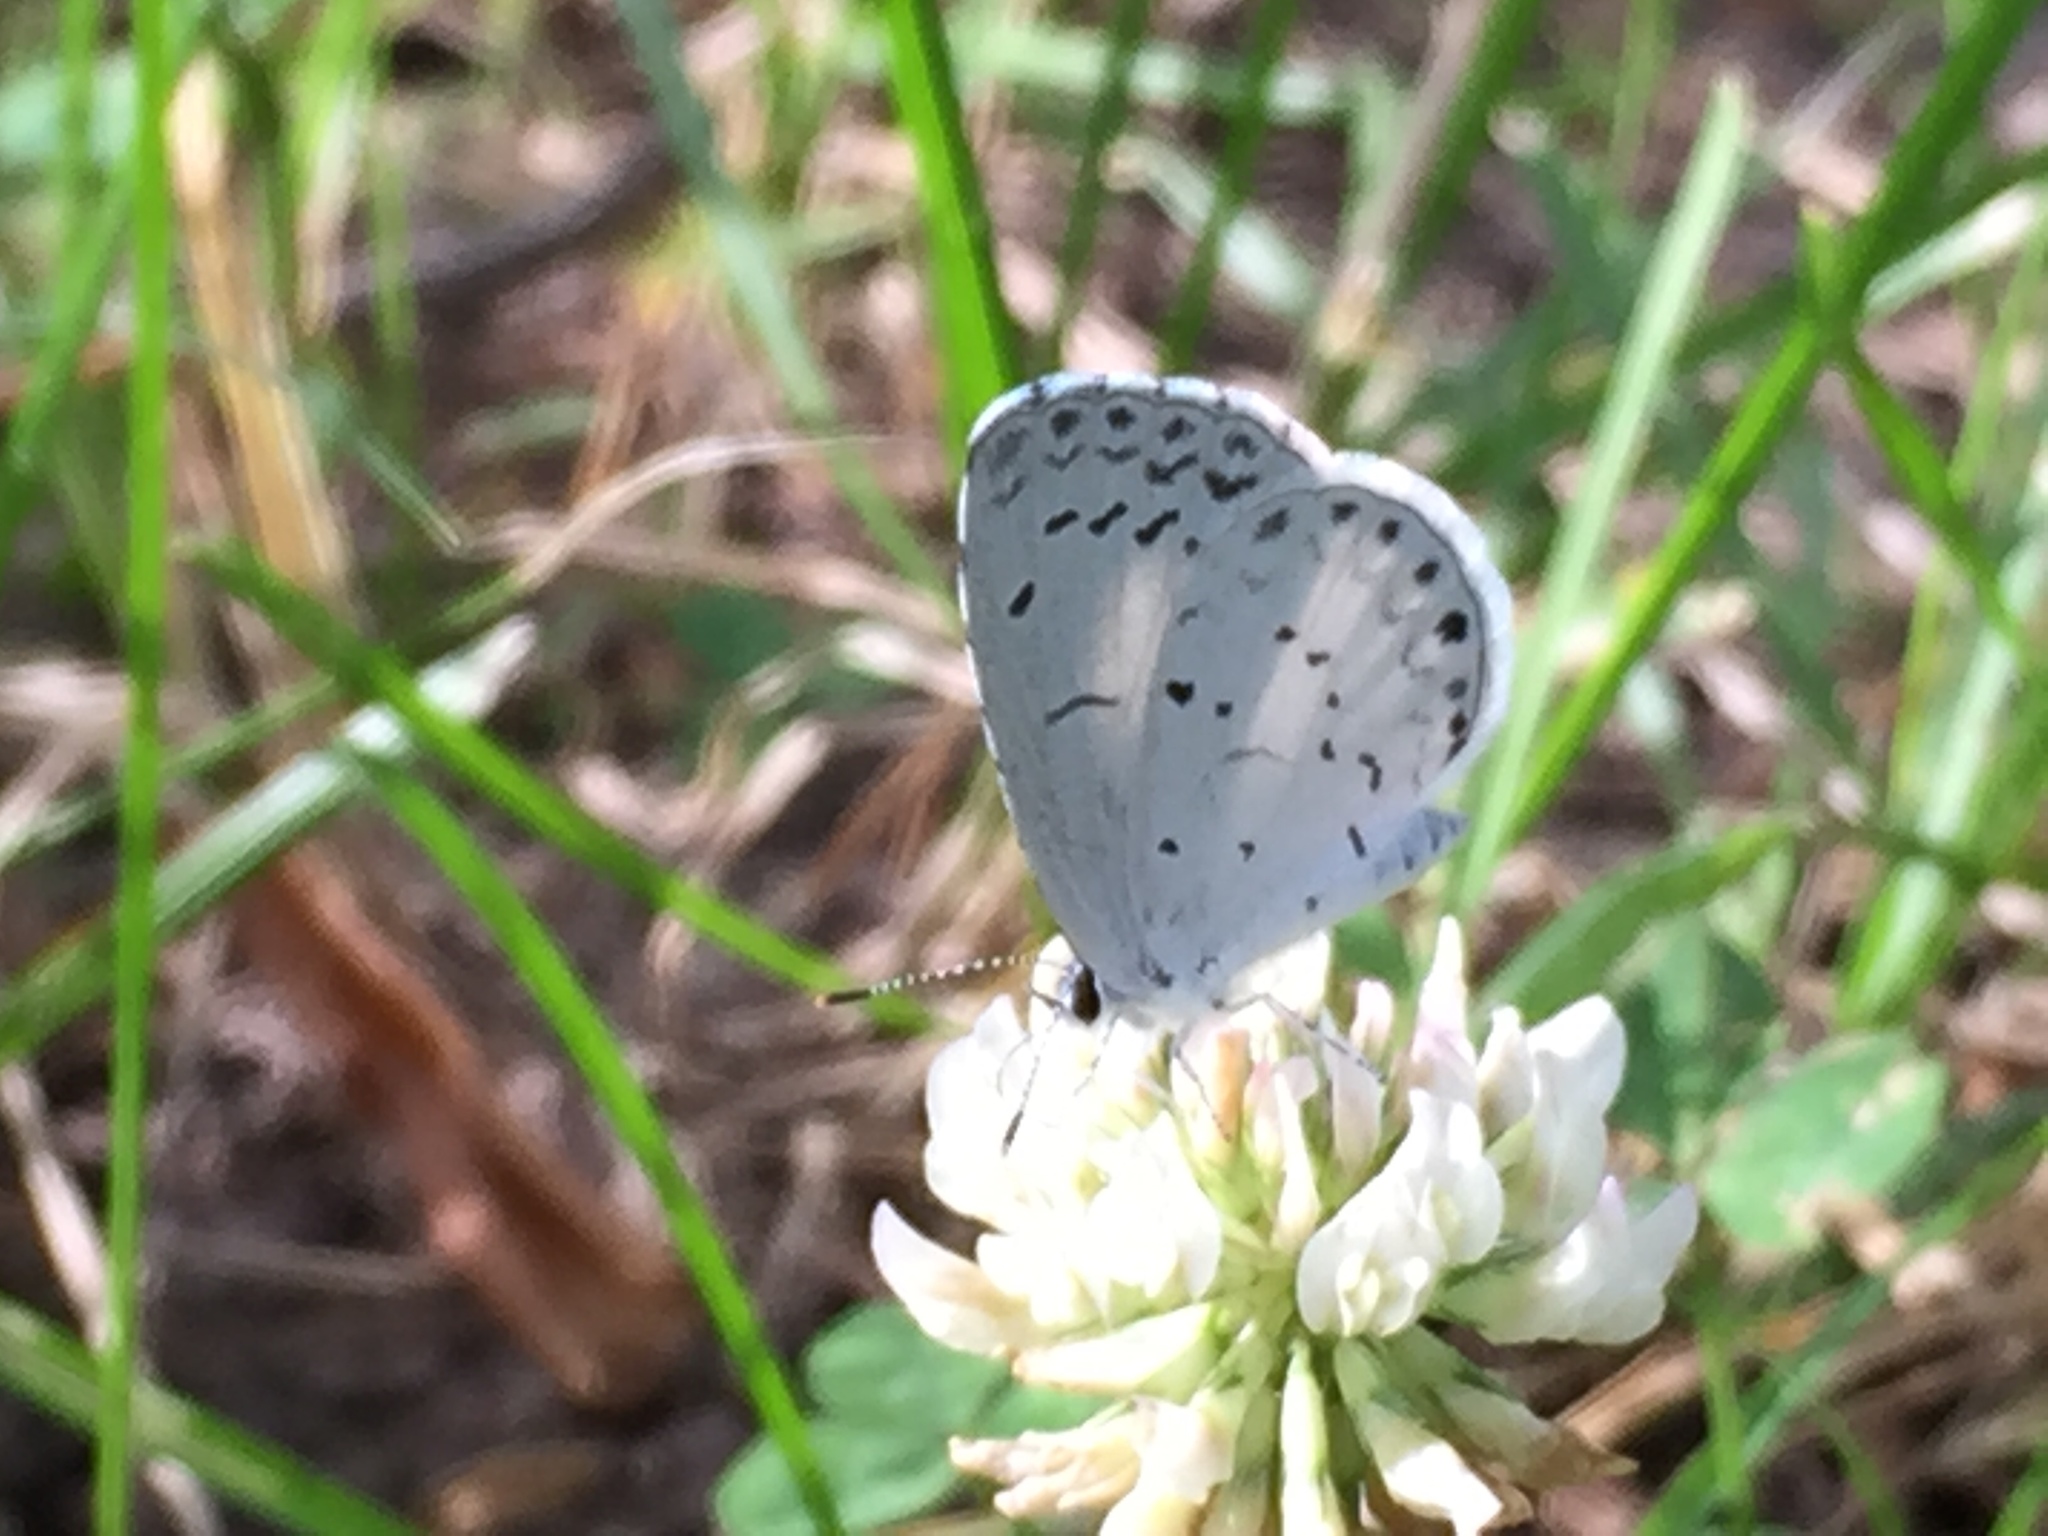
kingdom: Animalia
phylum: Arthropoda
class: Insecta
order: Lepidoptera
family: Lycaenidae
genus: Cyaniris
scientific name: Cyaniris neglecta
